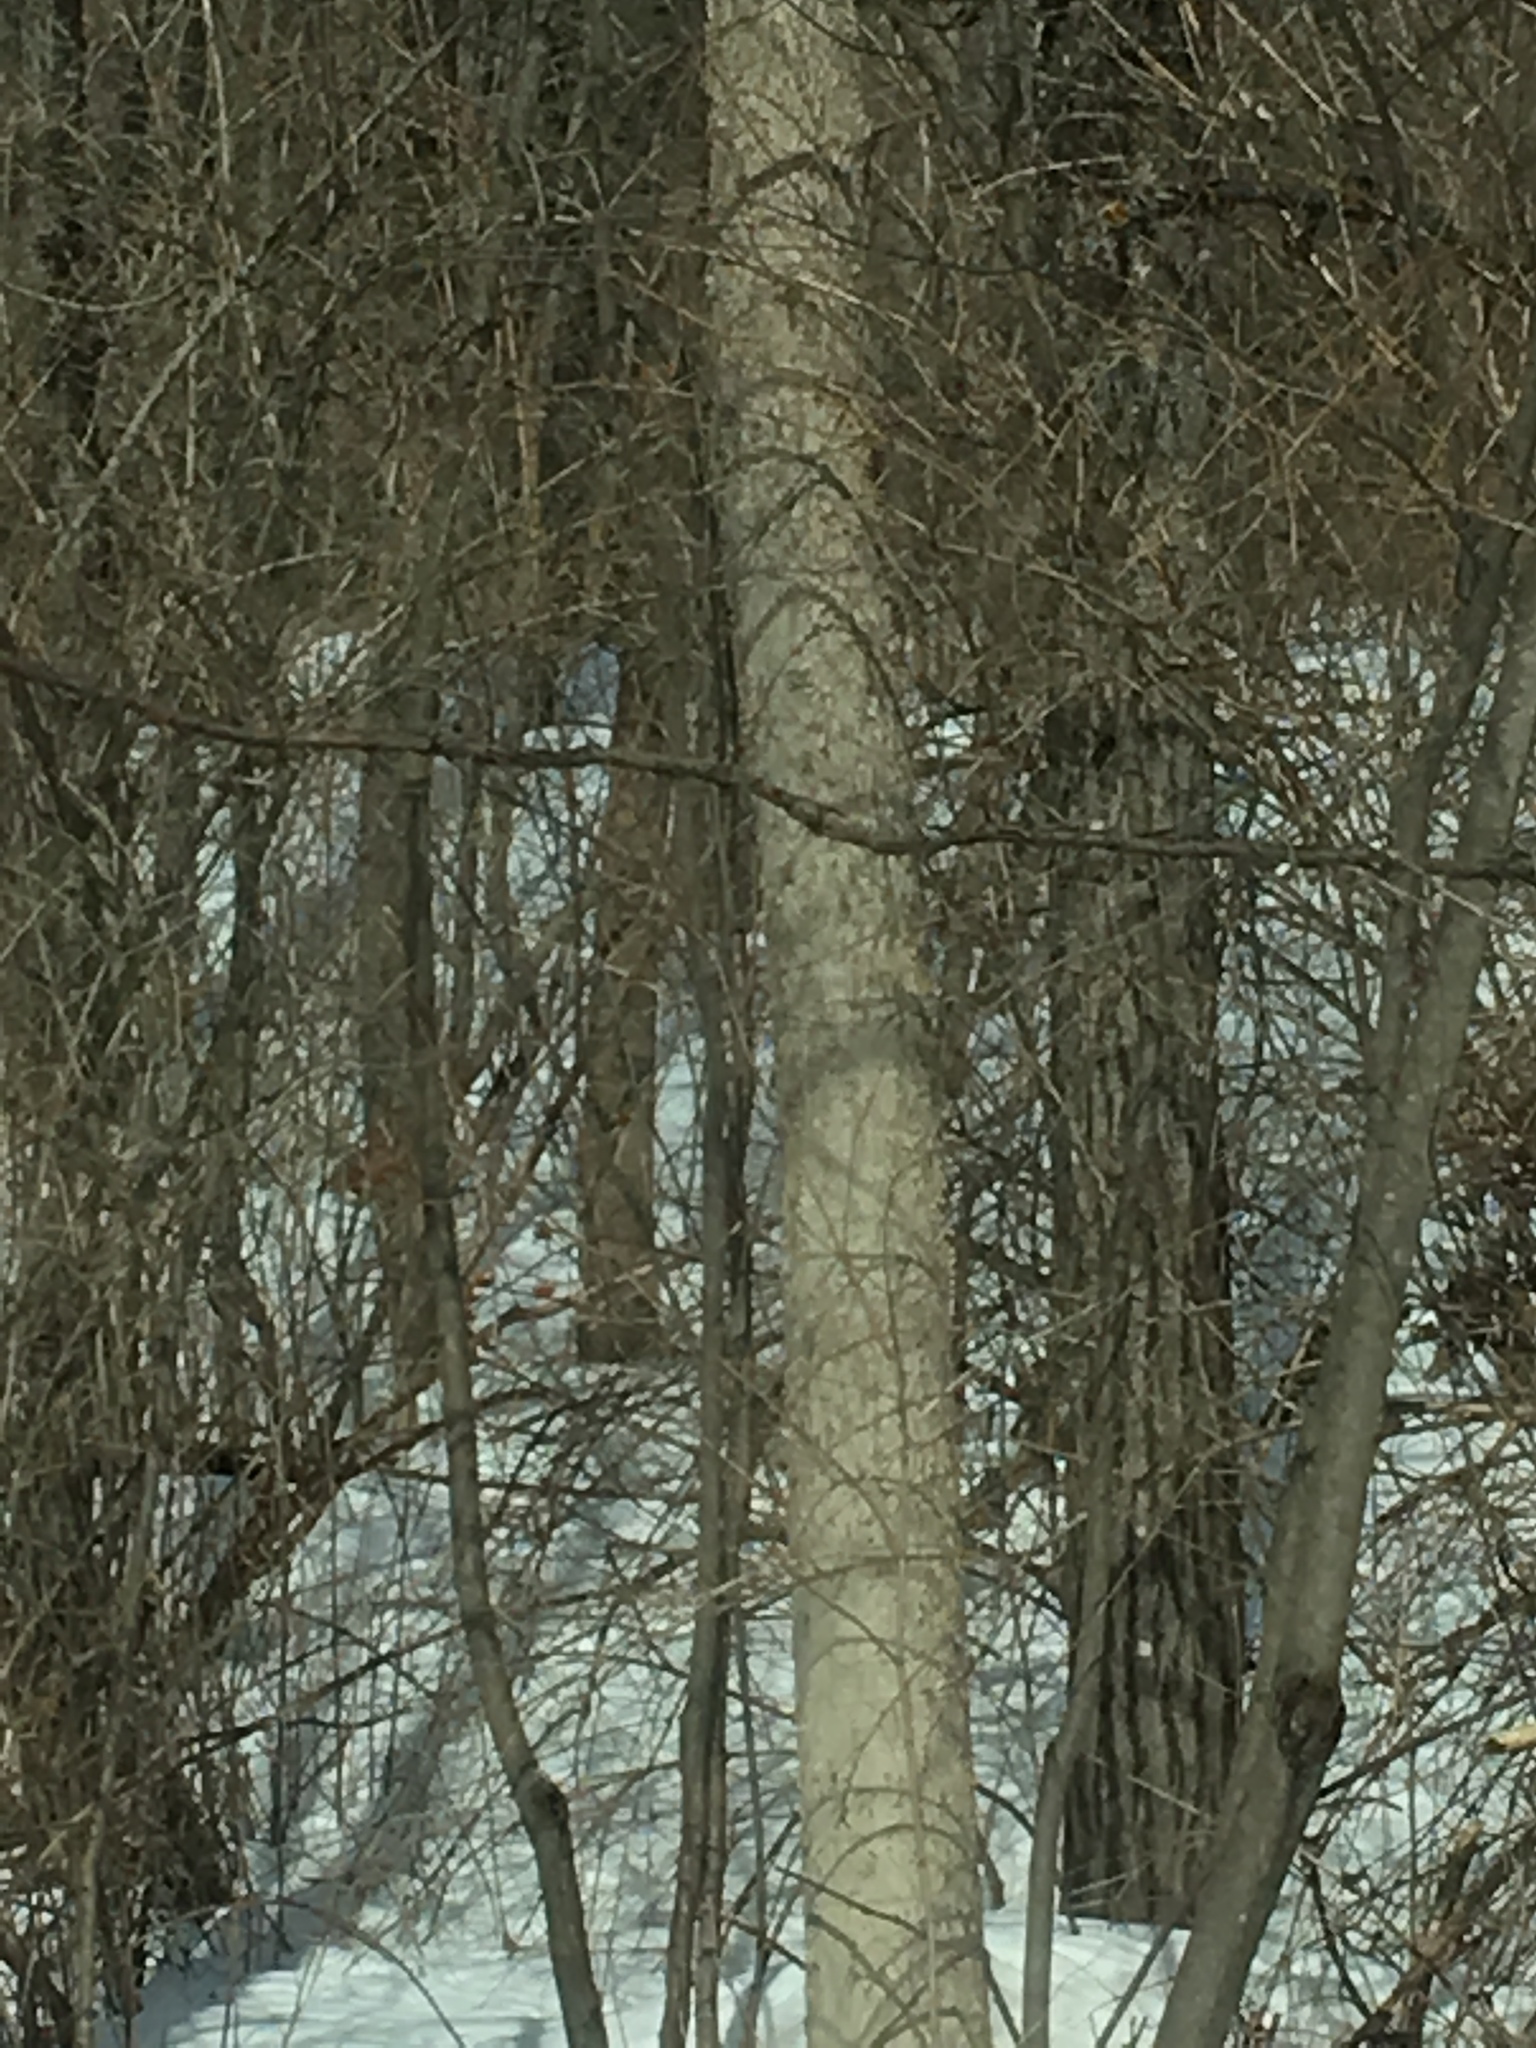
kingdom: Plantae
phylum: Tracheophyta
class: Magnoliopsida
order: Lamiales
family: Oleaceae
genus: Fraxinus
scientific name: Fraxinus nigra
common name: Black ash
